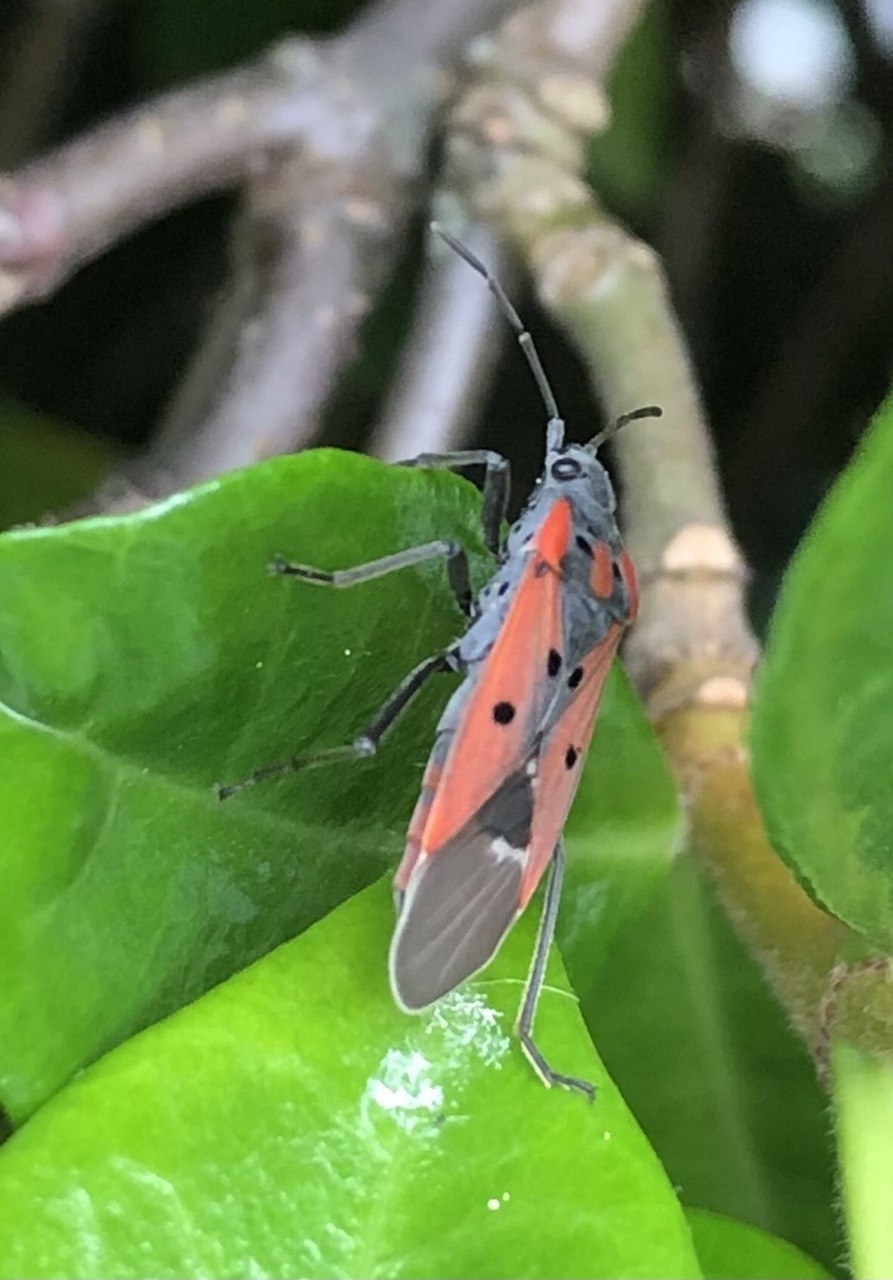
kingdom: Animalia
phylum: Arthropoda
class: Insecta
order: Hemiptera
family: Lygaeidae
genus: Lygaeus
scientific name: Lygaeus creticus
